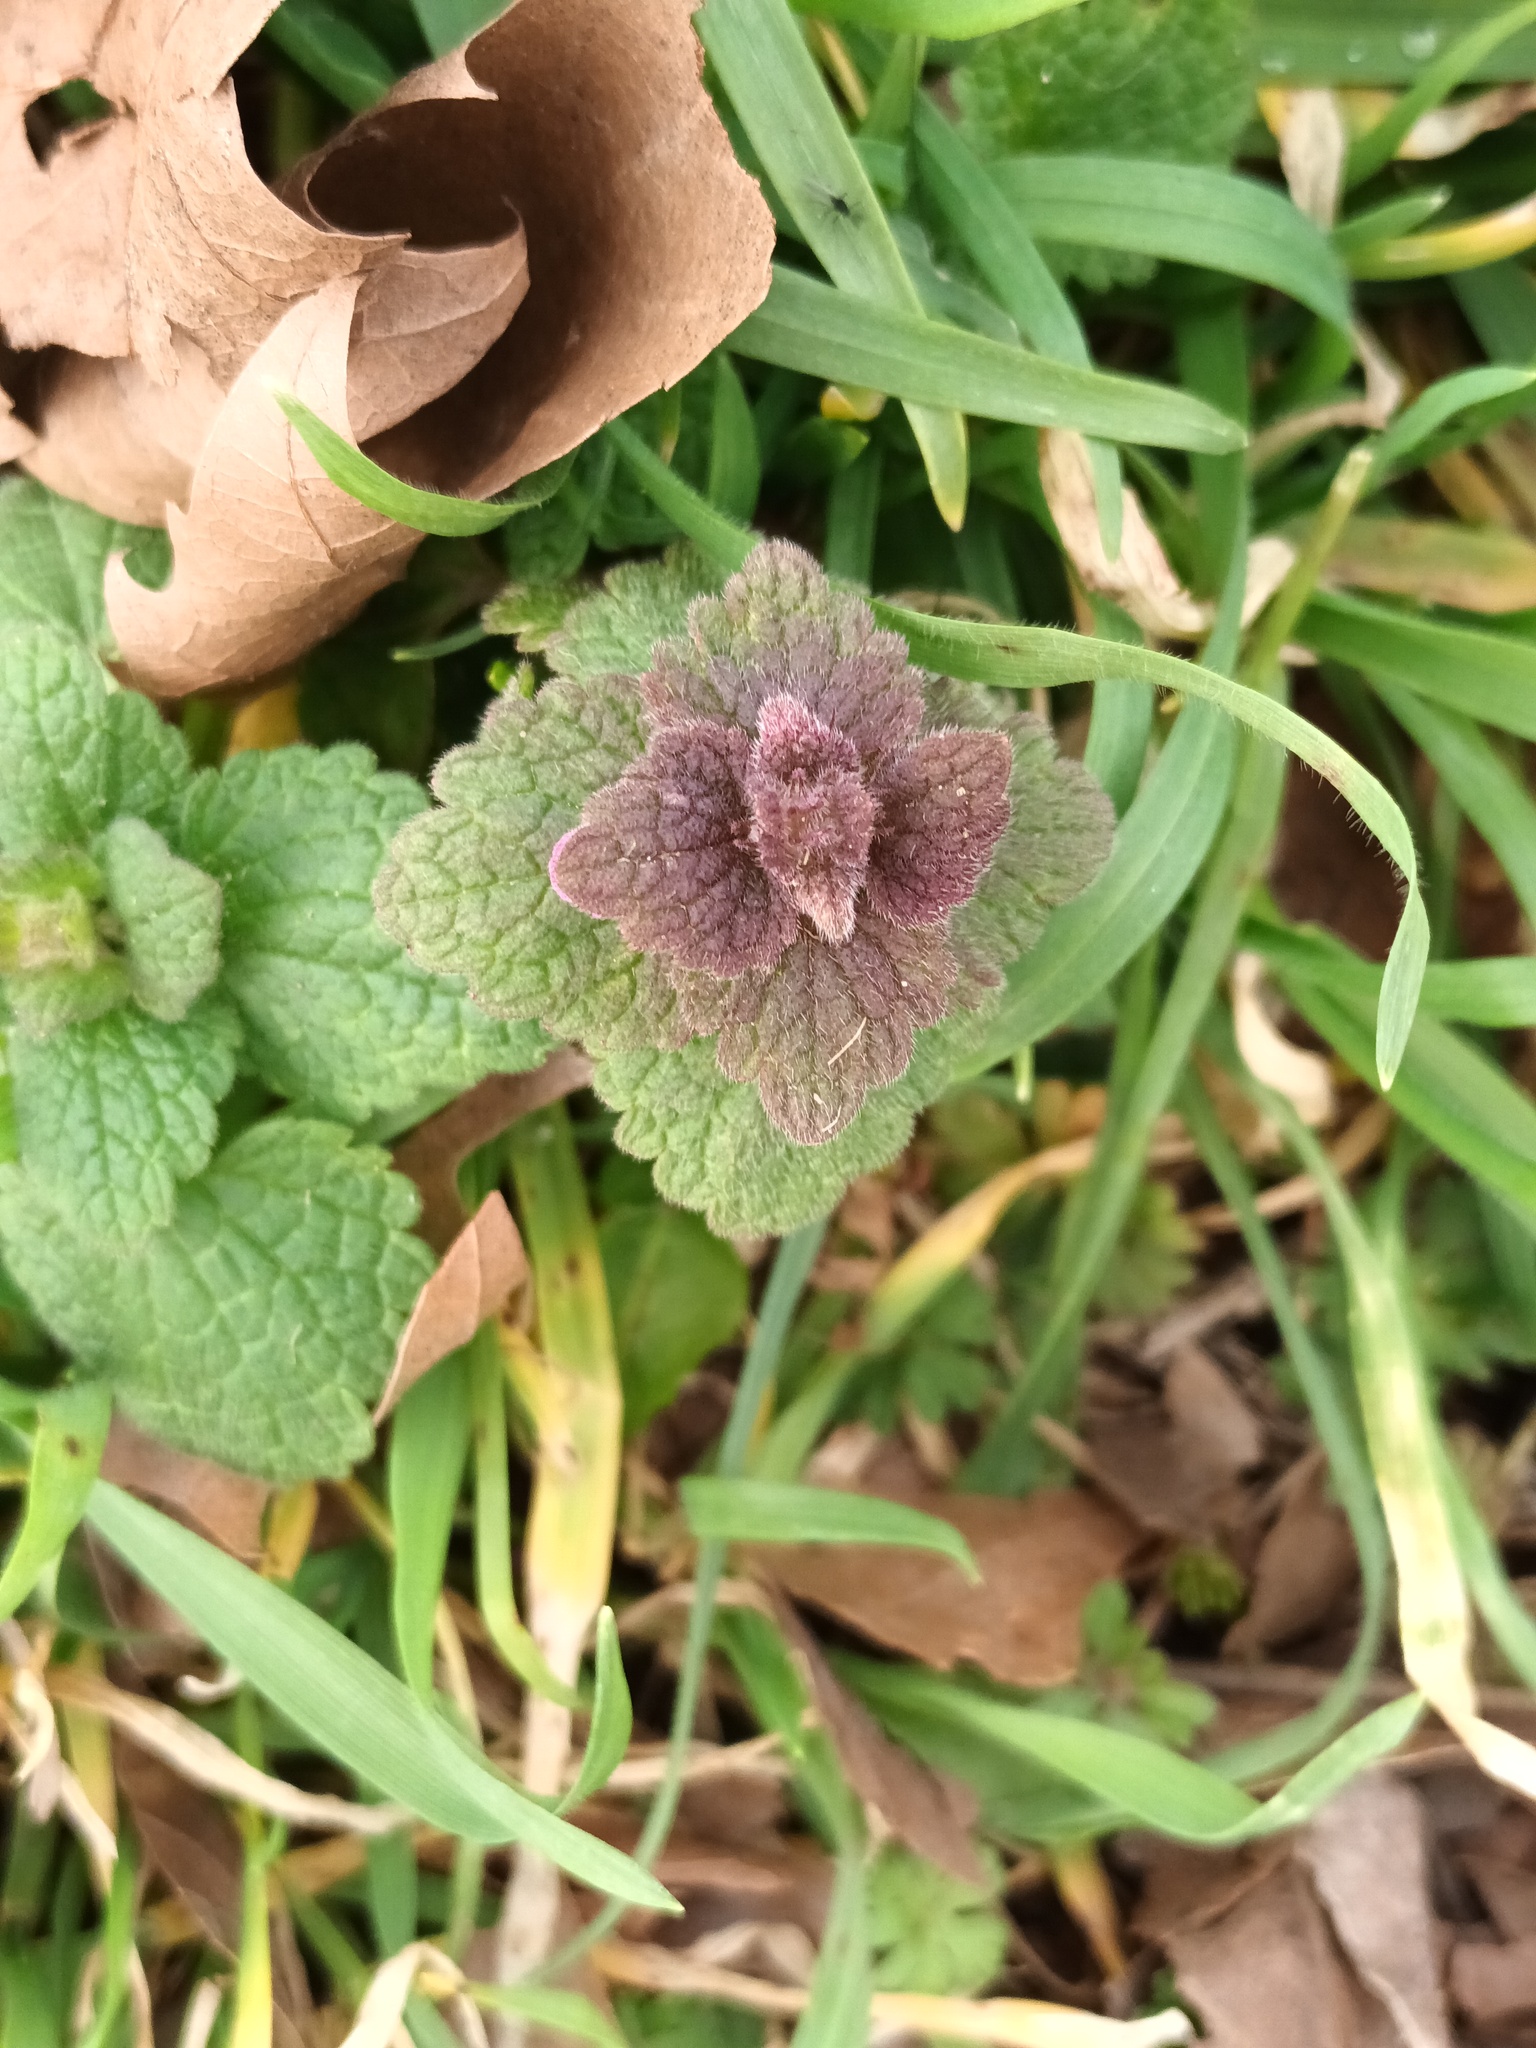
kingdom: Plantae
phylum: Tracheophyta
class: Magnoliopsida
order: Lamiales
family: Lamiaceae
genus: Lamium
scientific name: Lamium purpureum
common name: Red dead-nettle
